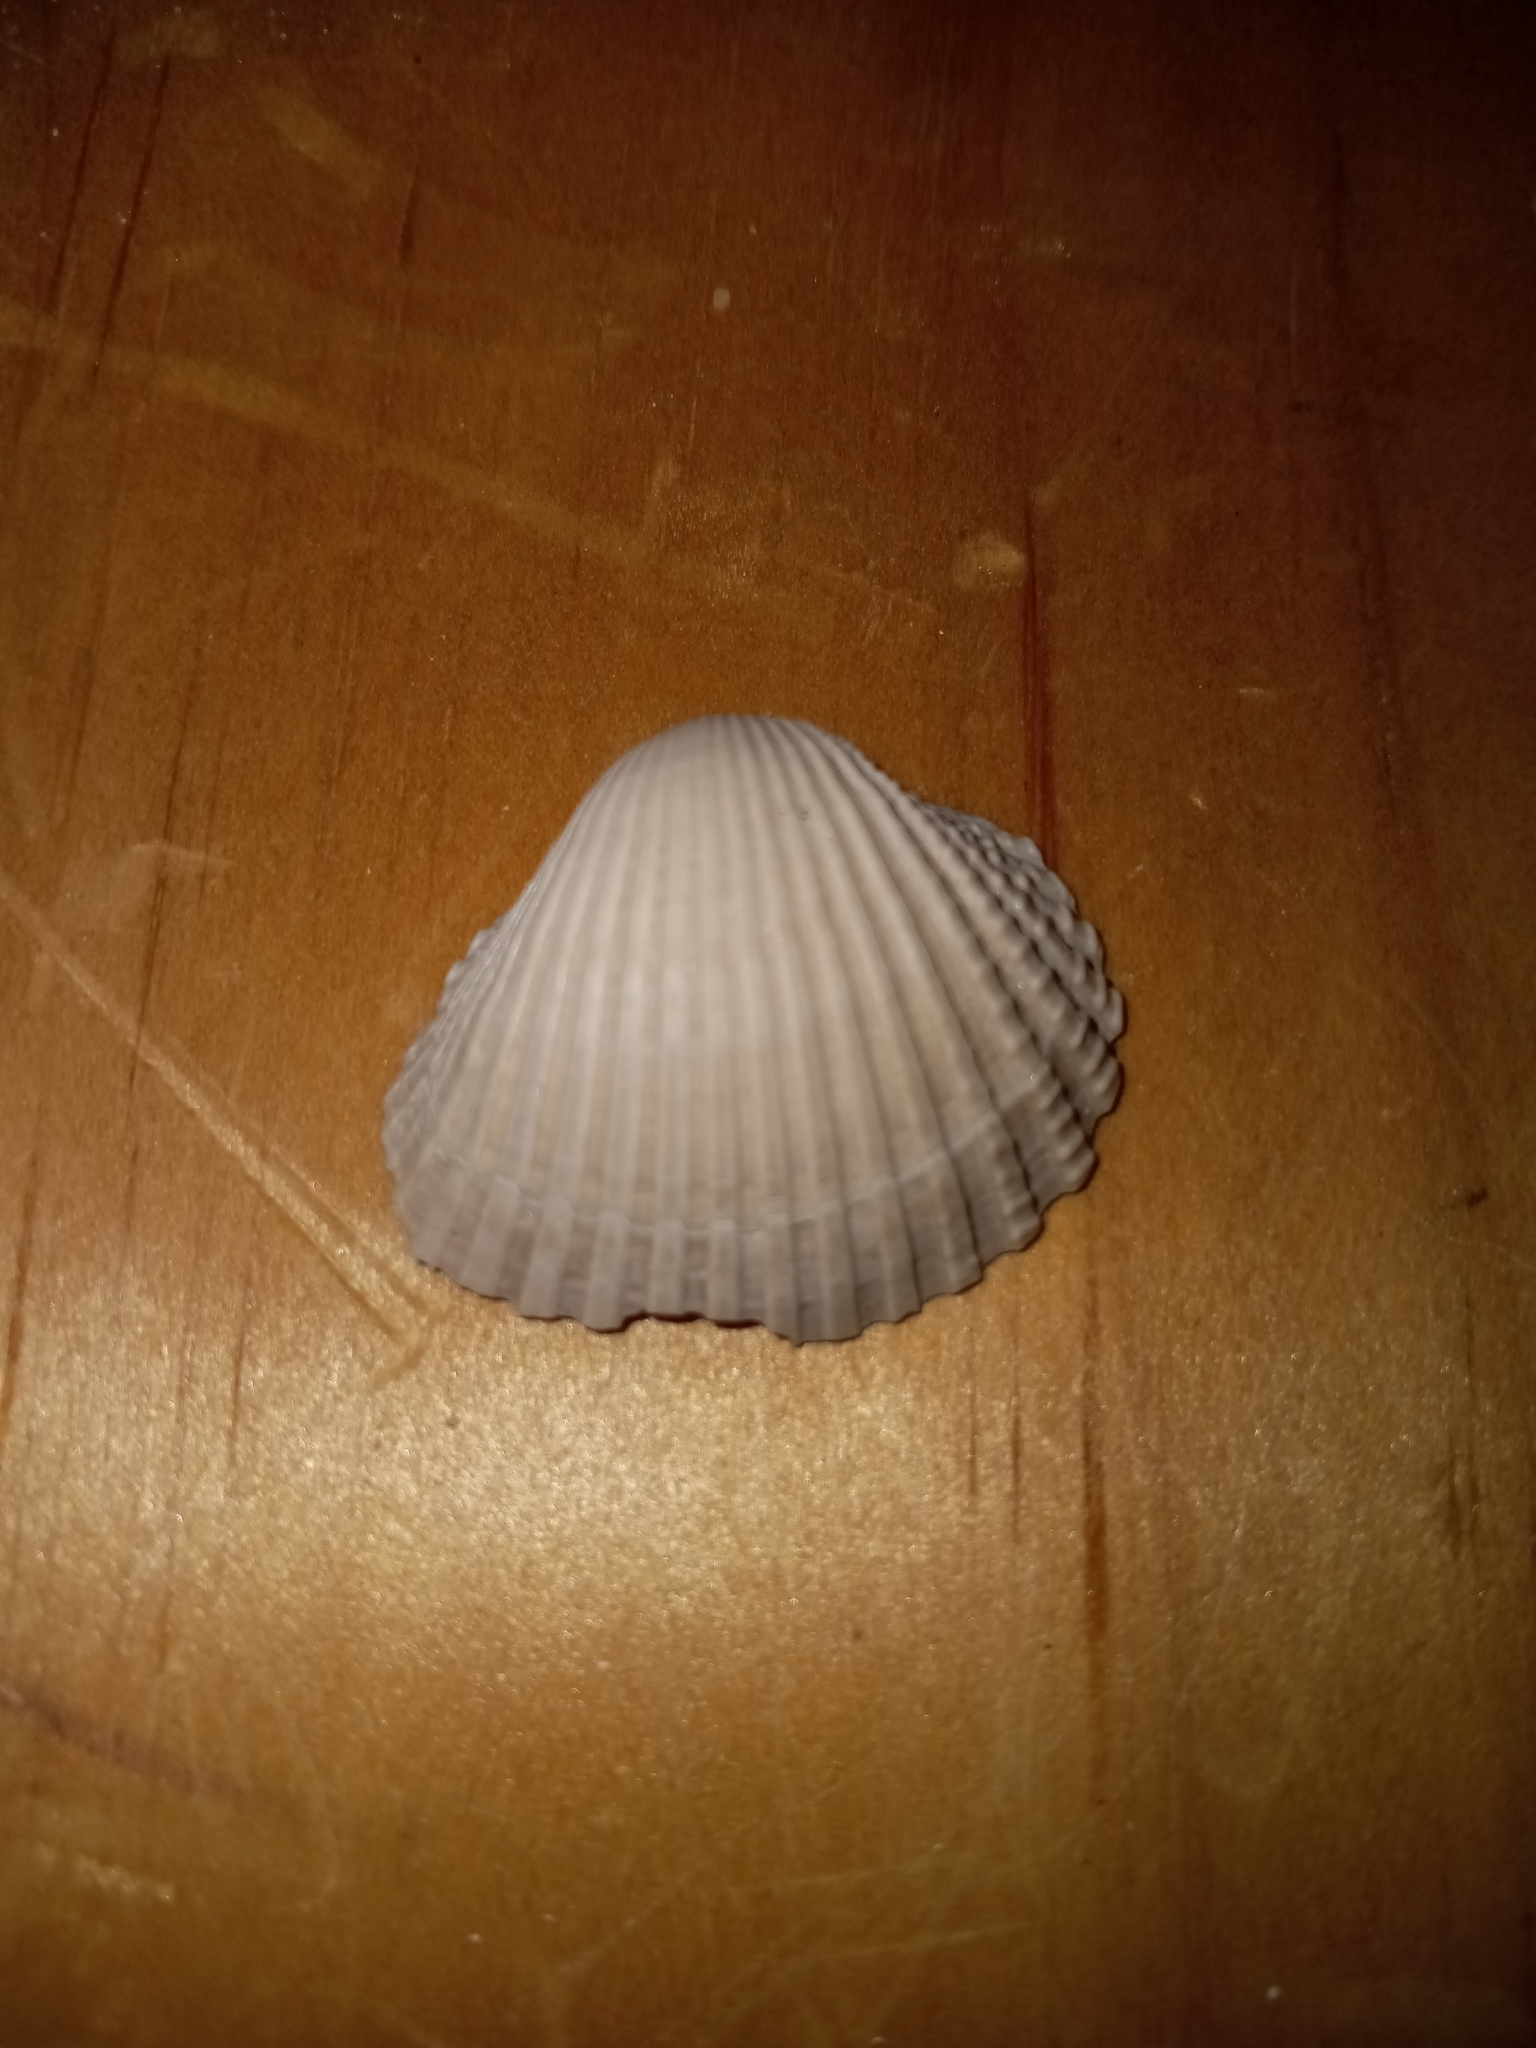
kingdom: Animalia
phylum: Mollusca
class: Bivalvia
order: Arcida
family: Arcidae
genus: Anadara
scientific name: Anadara brasiliana
